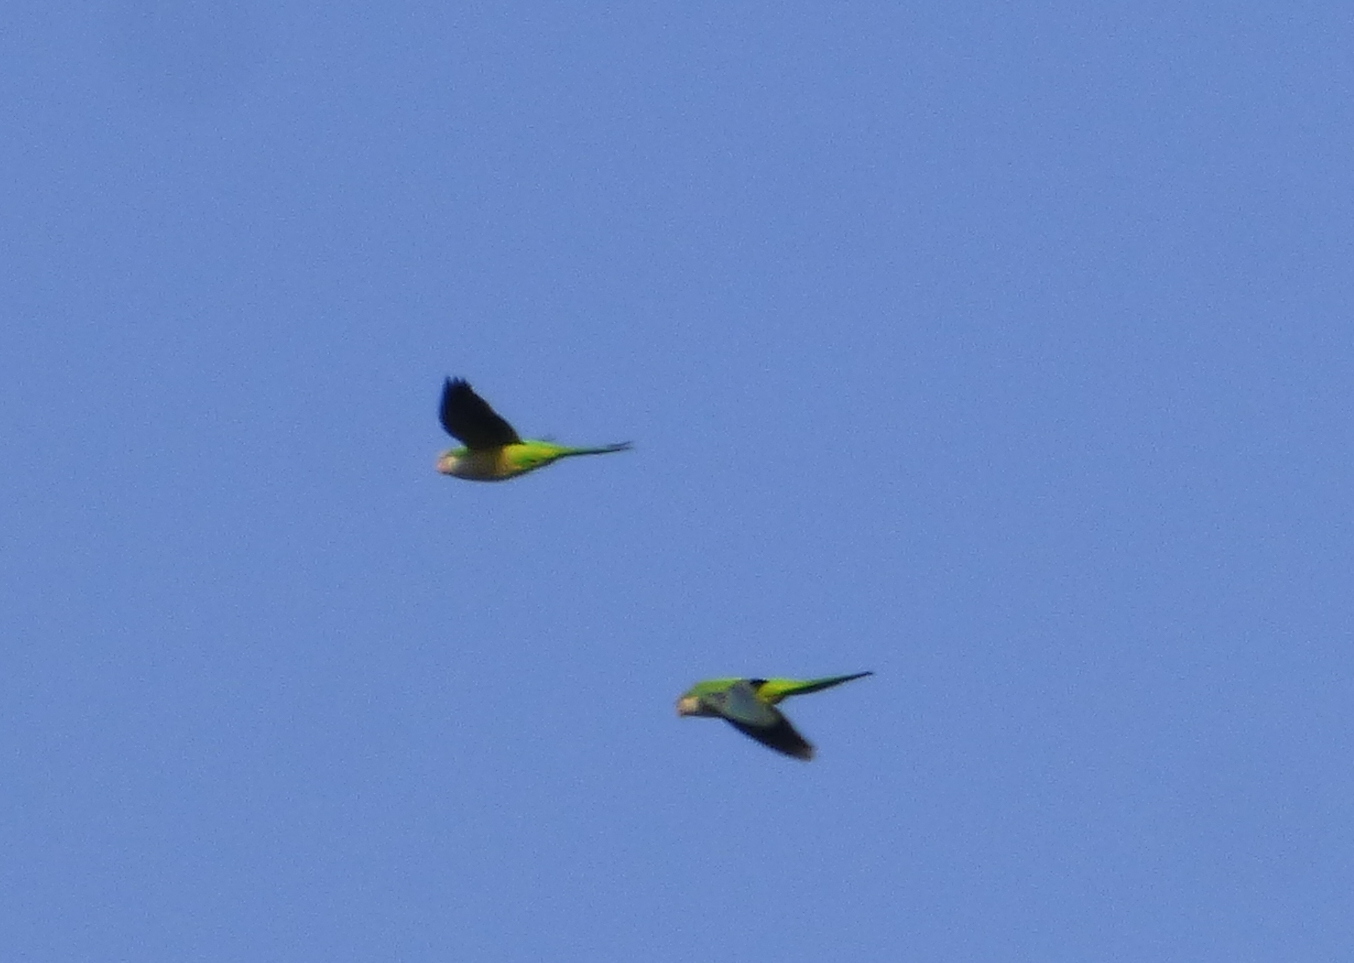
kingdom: Animalia
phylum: Chordata
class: Aves
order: Psittaciformes
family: Psittacidae
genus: Myiopsitta
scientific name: Myiopsitta monachus
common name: Monk parakeet
